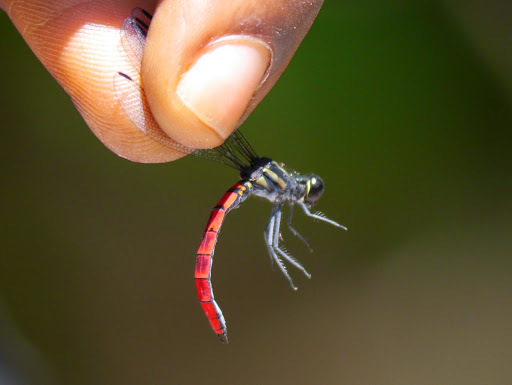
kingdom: Animalia
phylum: Arthropoda
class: Insecta
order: Odonata
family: Chlorocyphidae
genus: Chlorocypha
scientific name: Chlorocypha trifaria
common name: Blue-nosed jewel
